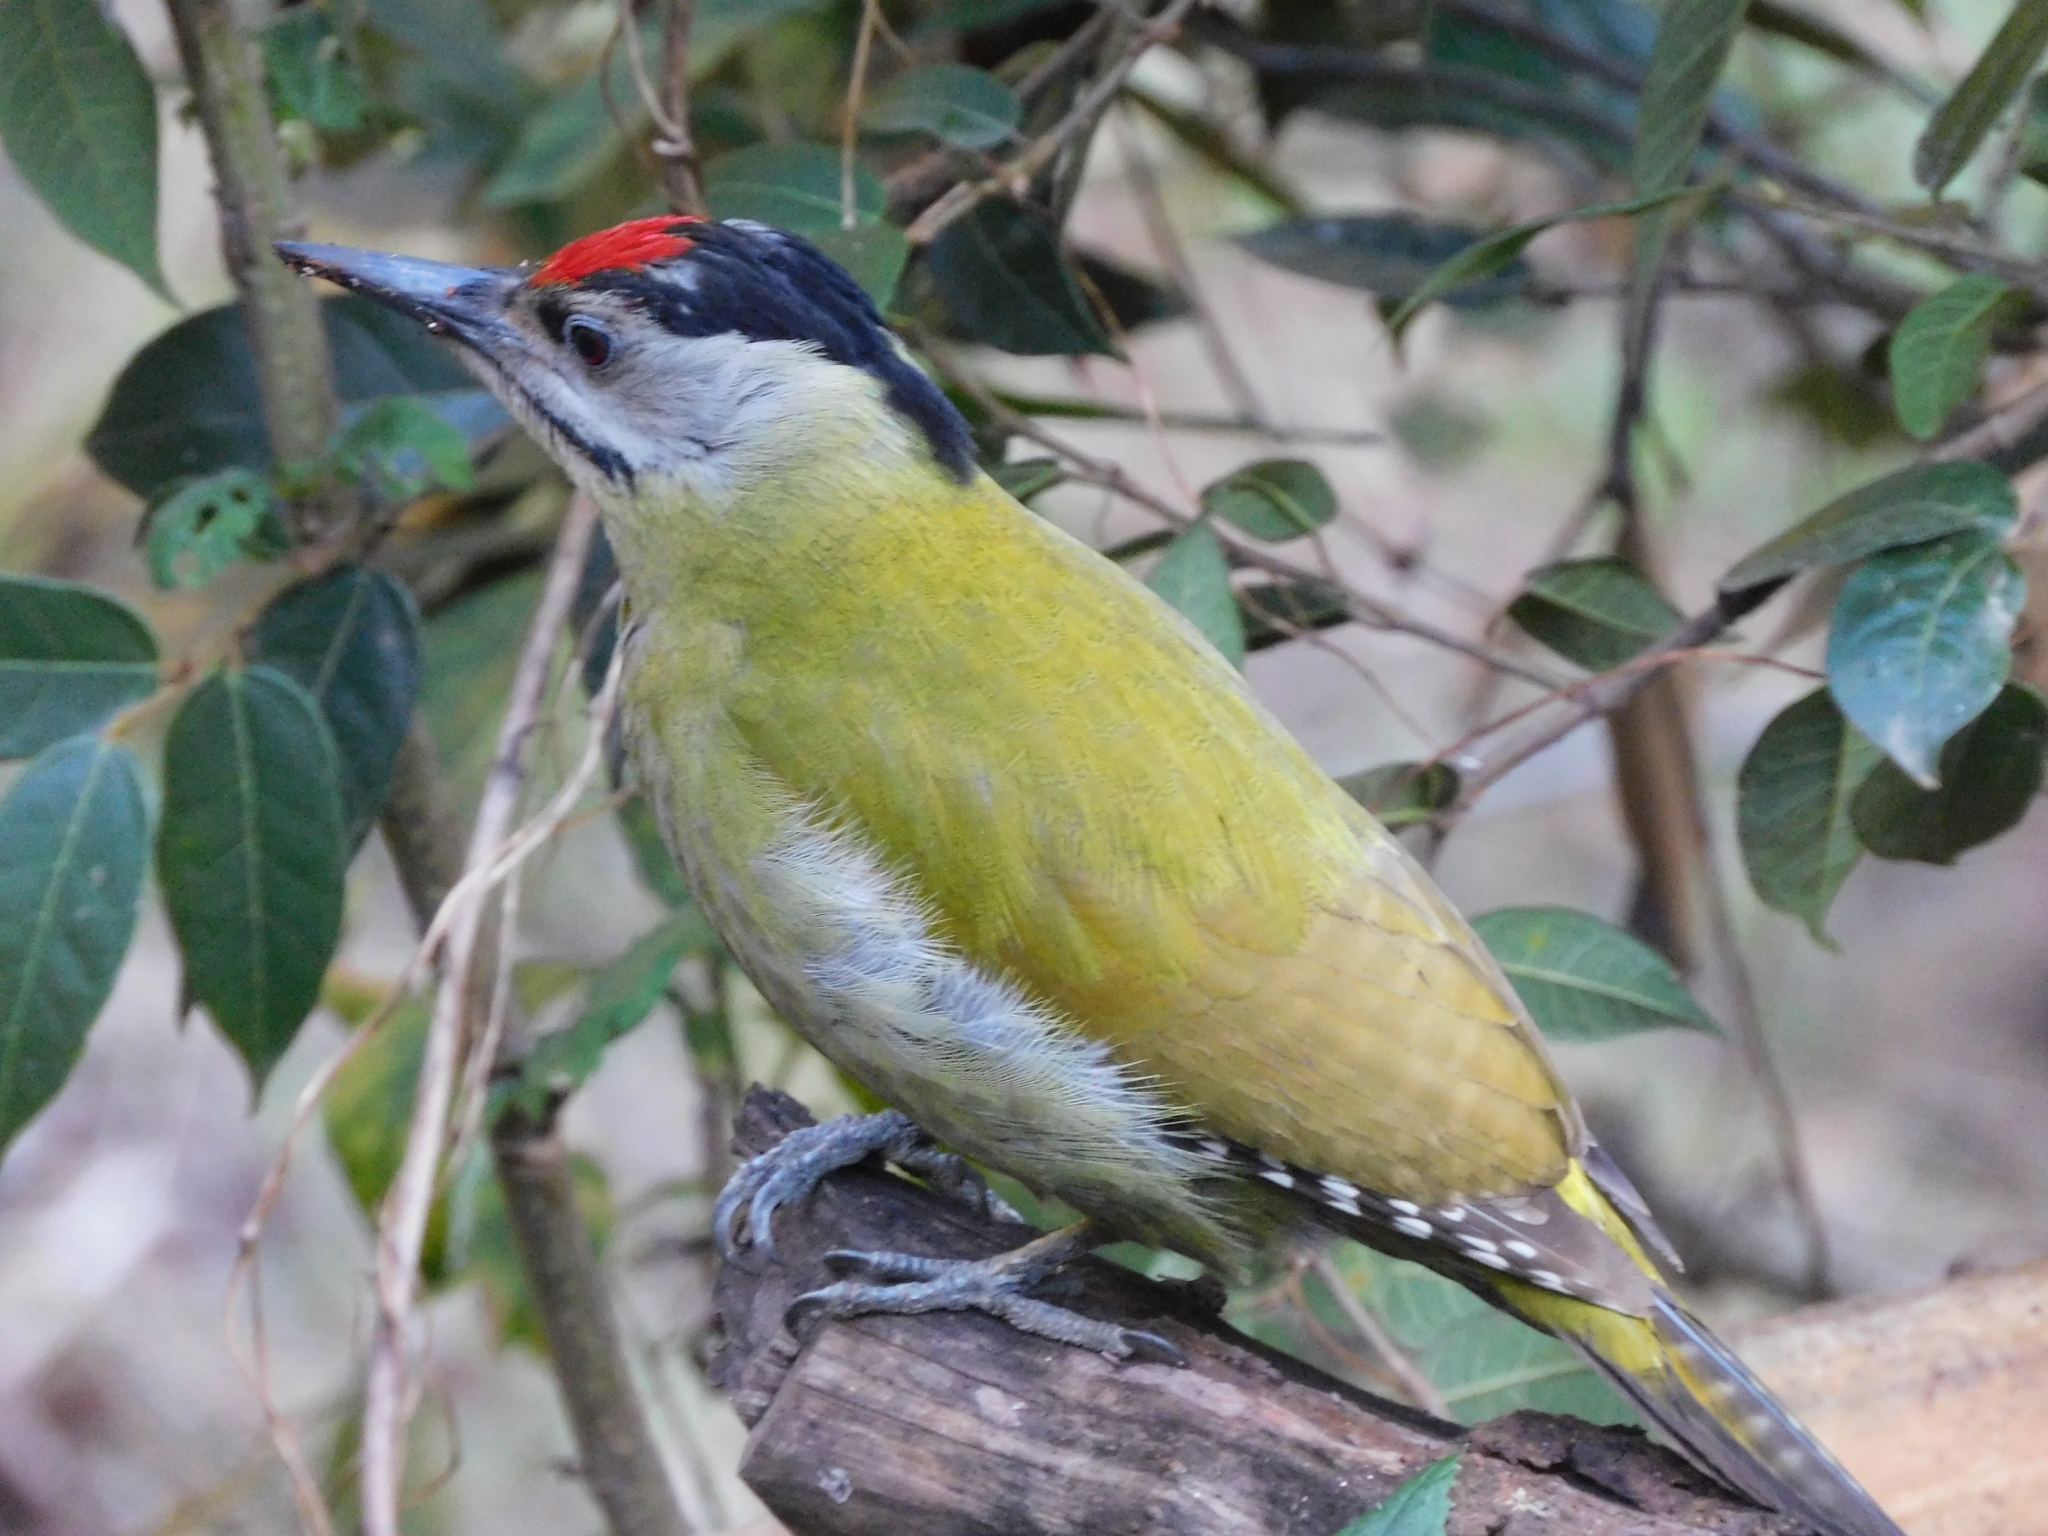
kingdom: Animalia
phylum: Chordata
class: Aves
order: Piciformes
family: Picidae
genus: Picus
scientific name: Picus canus
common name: Grey-headed woodpecker
